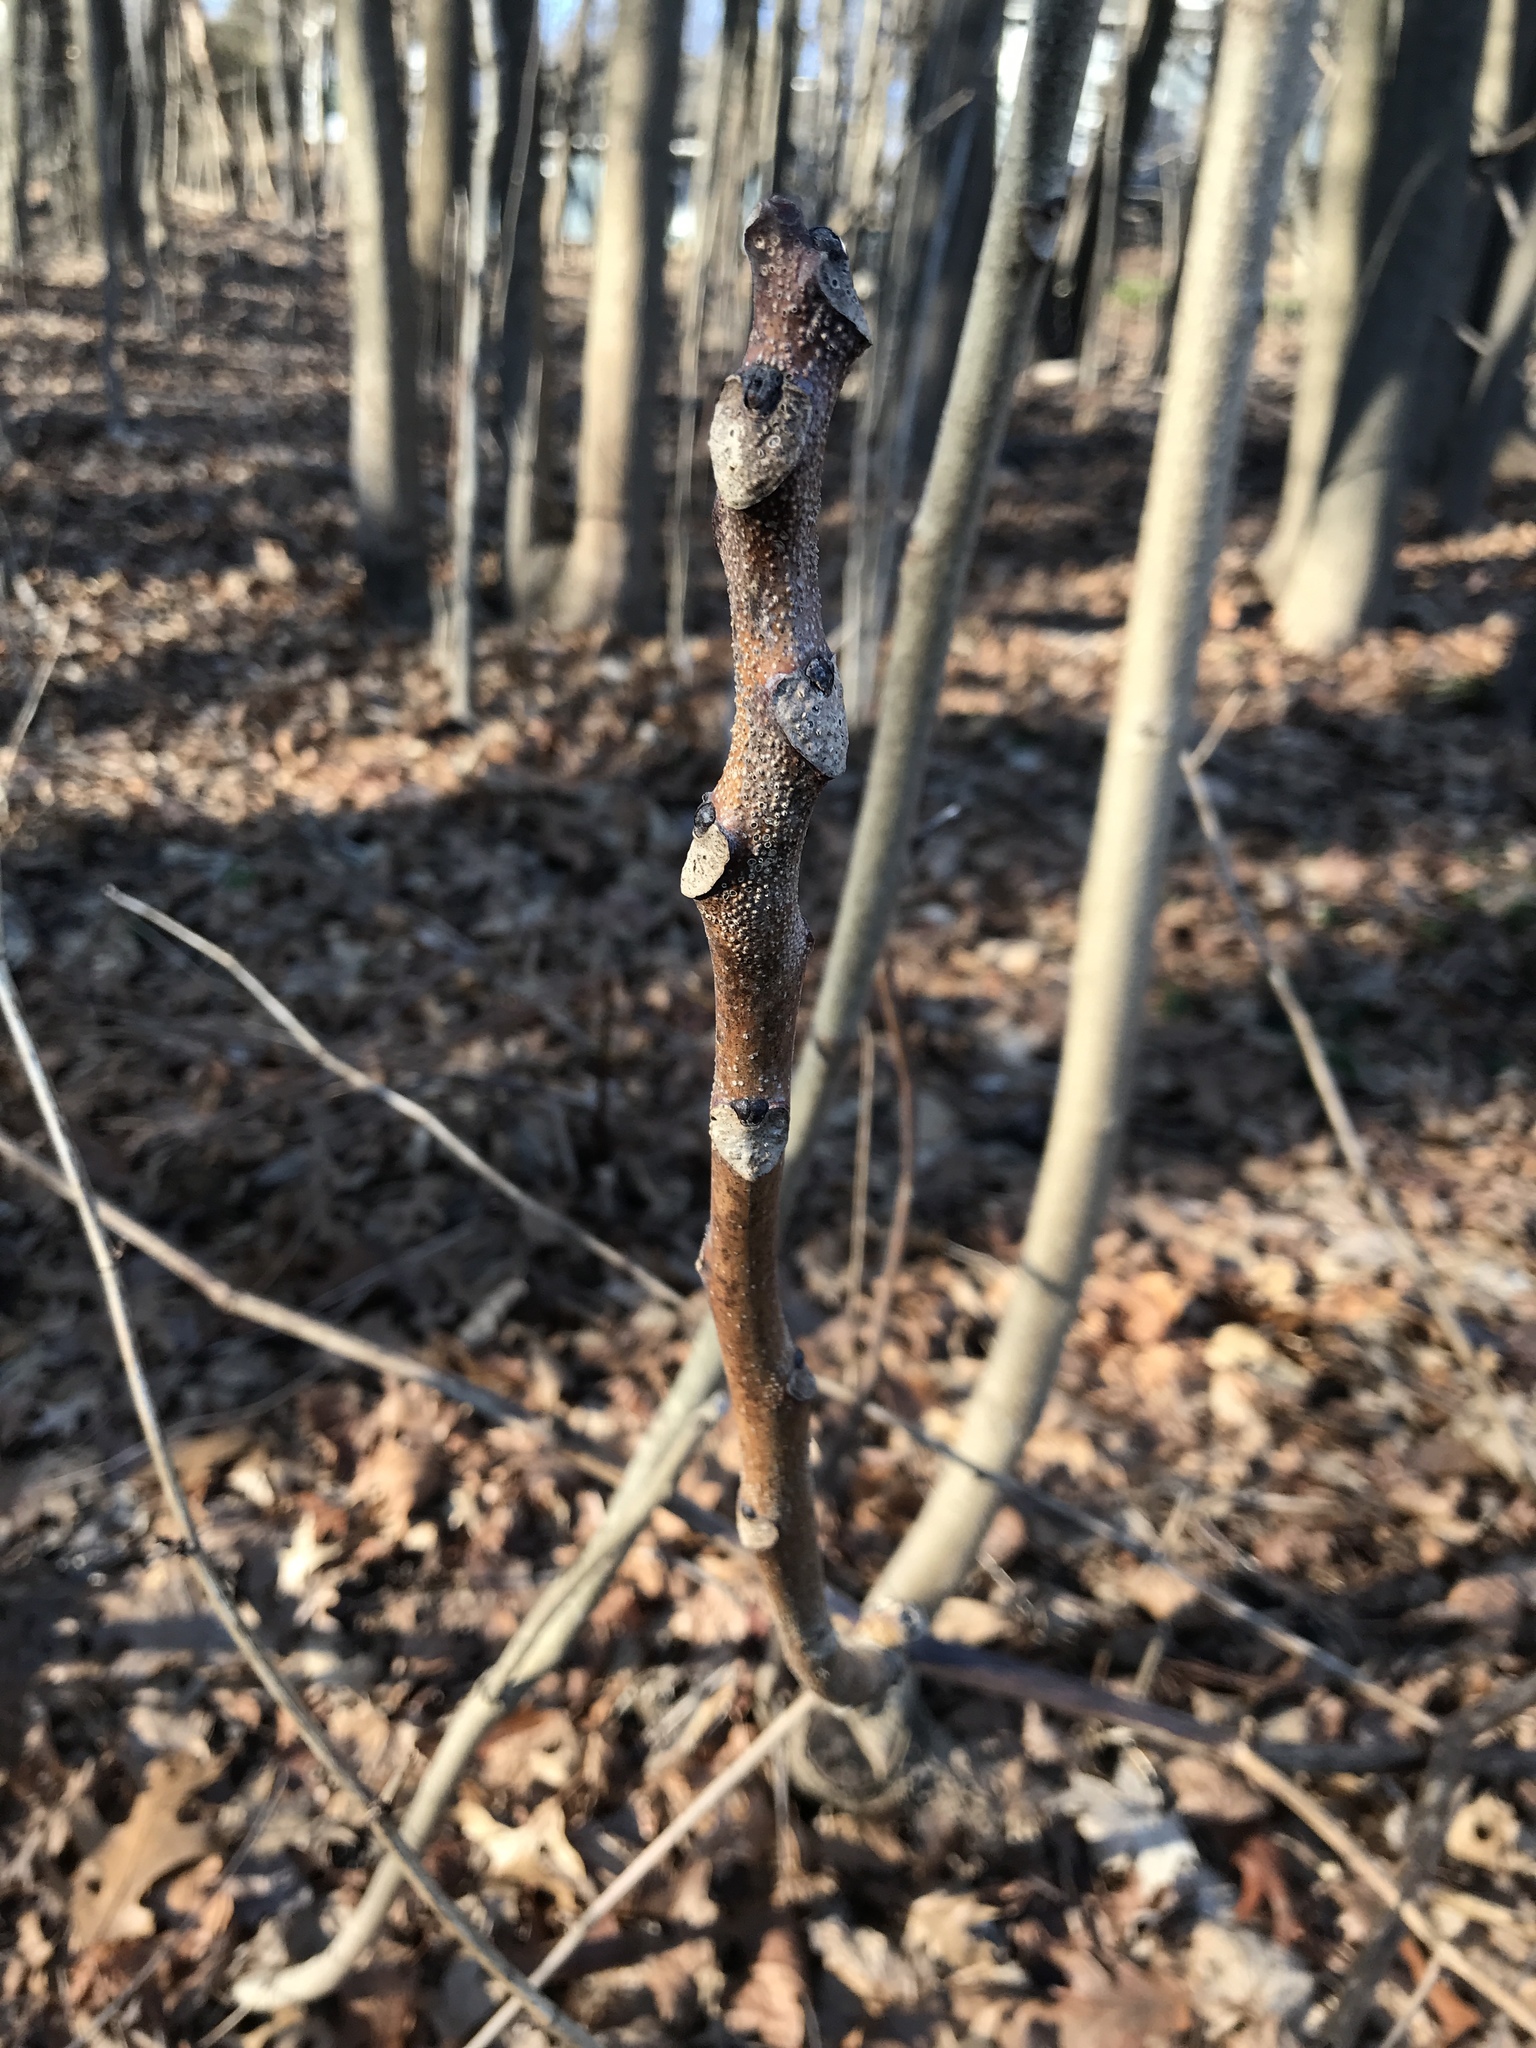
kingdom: Plantae
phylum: Tracheophyta
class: Magnoliopsida
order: Sapindales
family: Simaroubaceae
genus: Ailanthus
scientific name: Ailanthus altissima
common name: Tree-of-heaven
